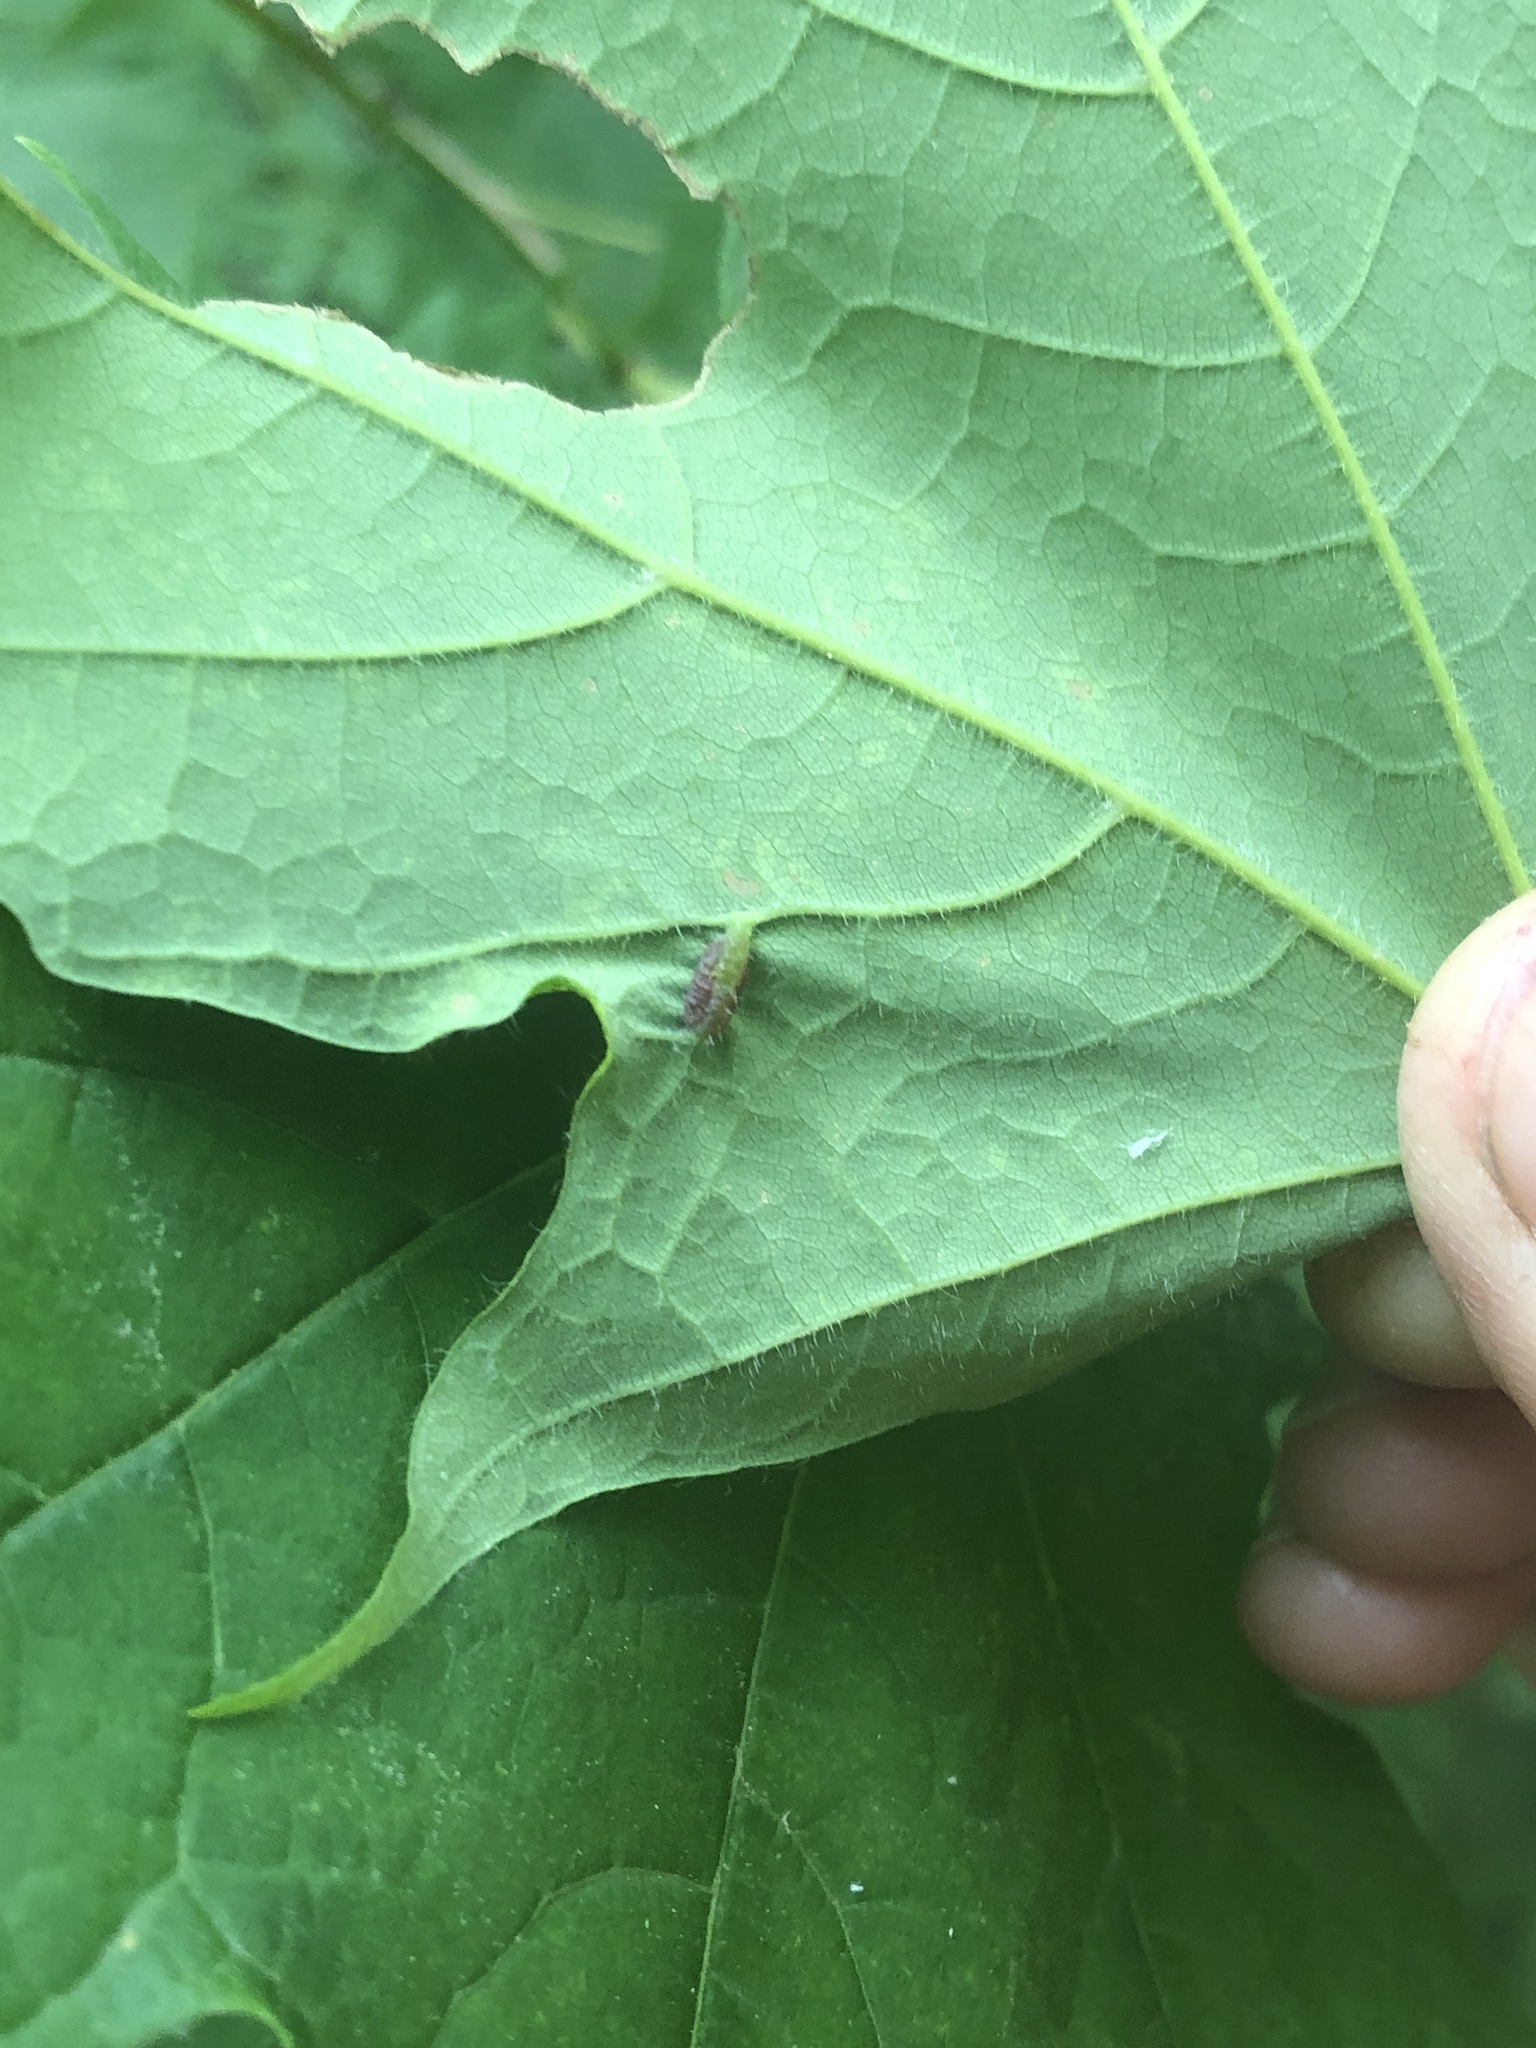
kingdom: Animalia
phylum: Arthropoda
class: Insecta
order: Diptera
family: Cecidomyiidae
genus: Dasineura
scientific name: Dasineura communis
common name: Gouty vein midge
